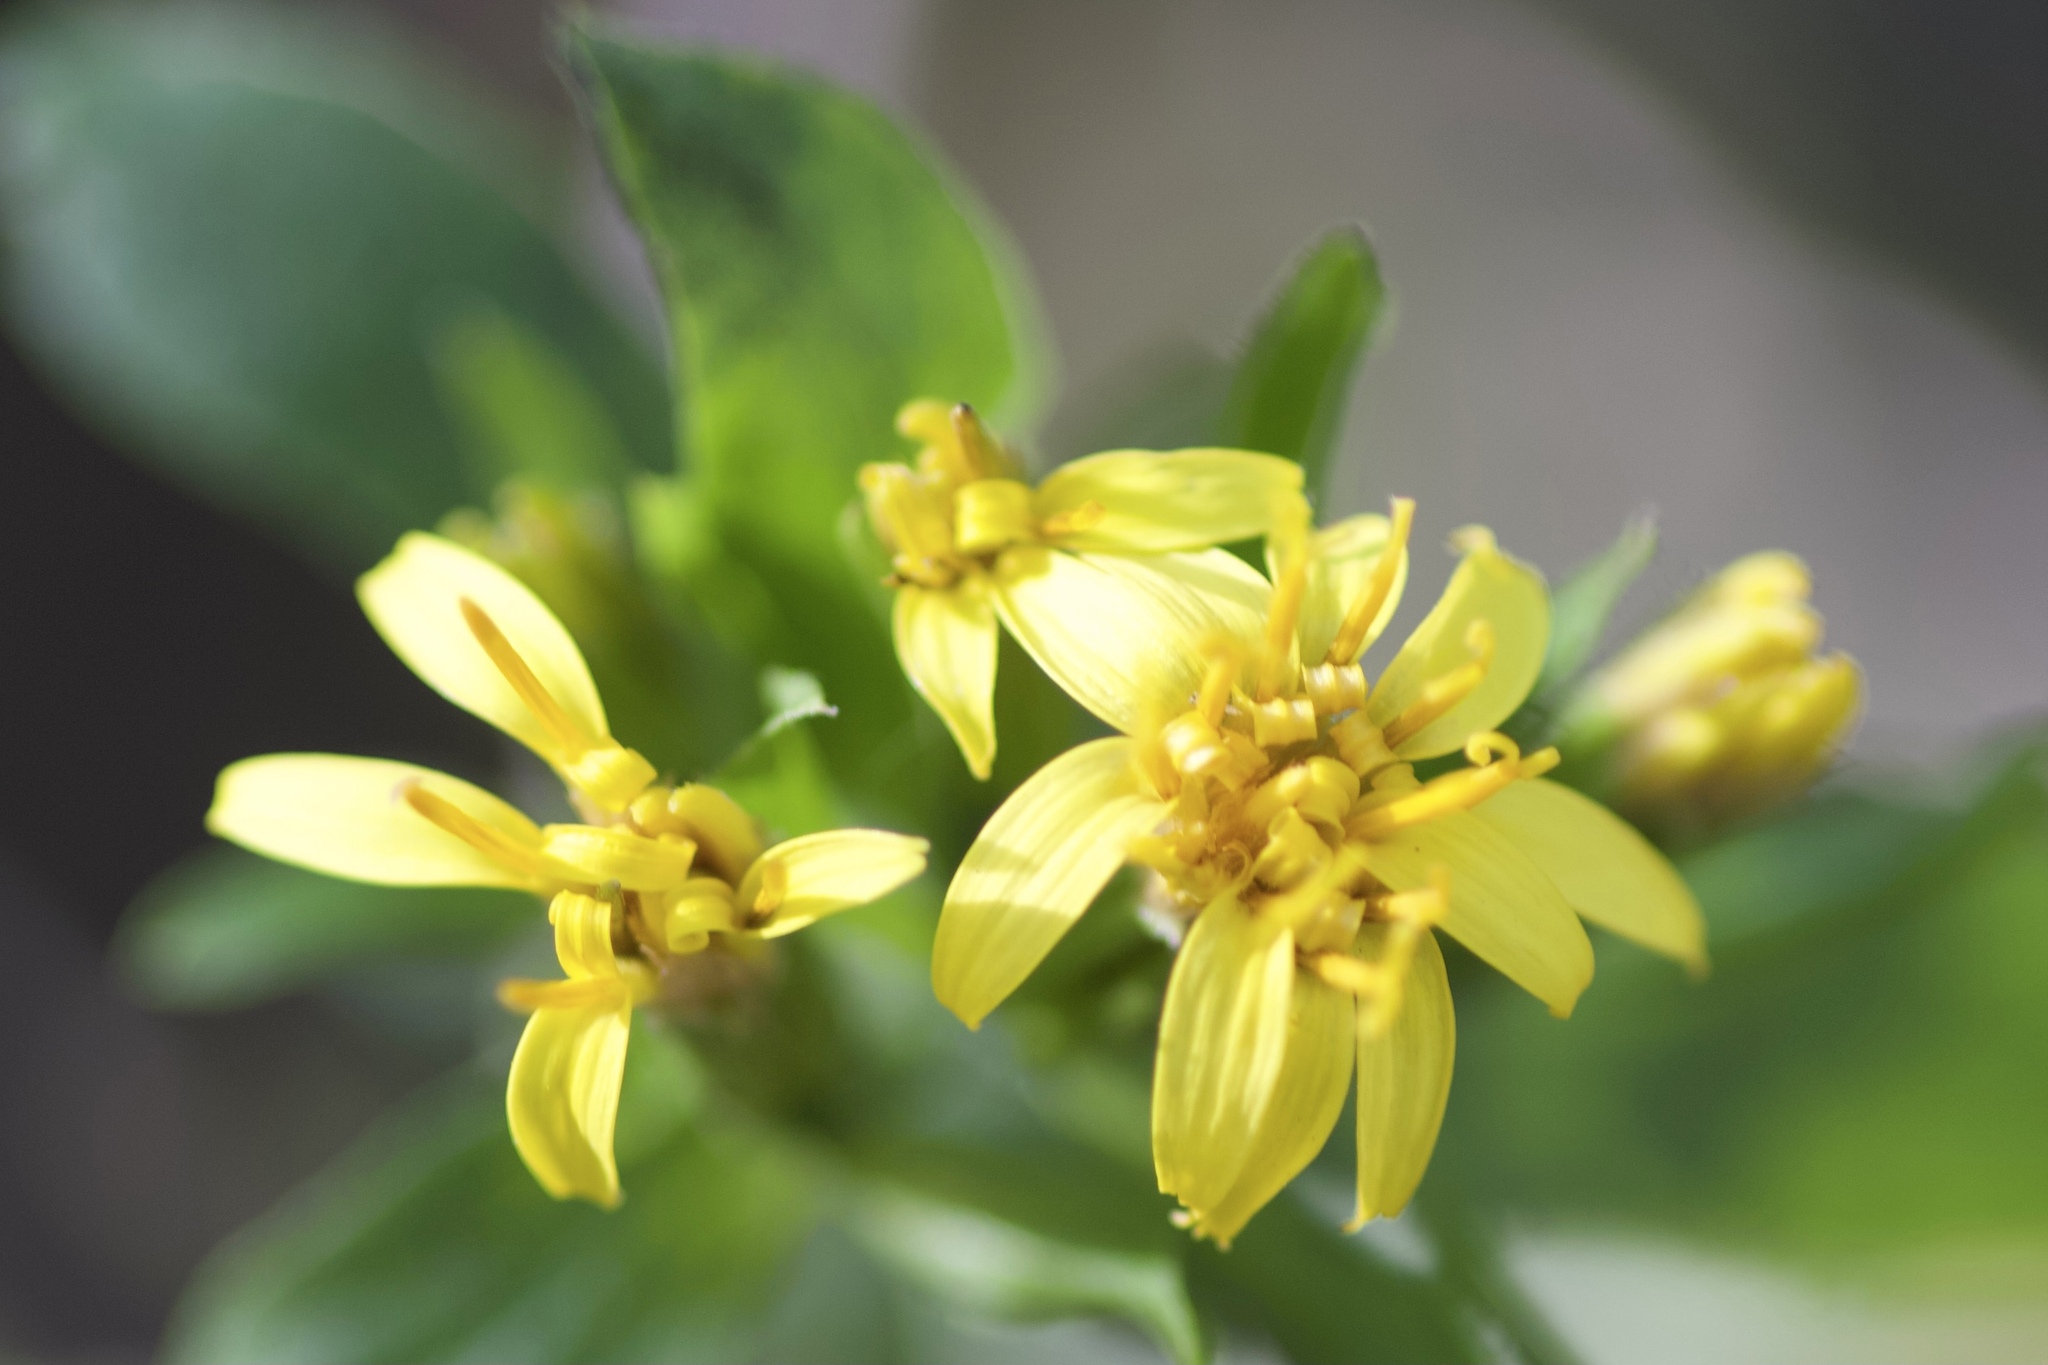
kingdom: Plantae
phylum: Tracheophyta
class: Magnoliopsida
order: Asterales
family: Asteraceae
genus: Trixis
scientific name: Trixis inula
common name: Tropical threefold
